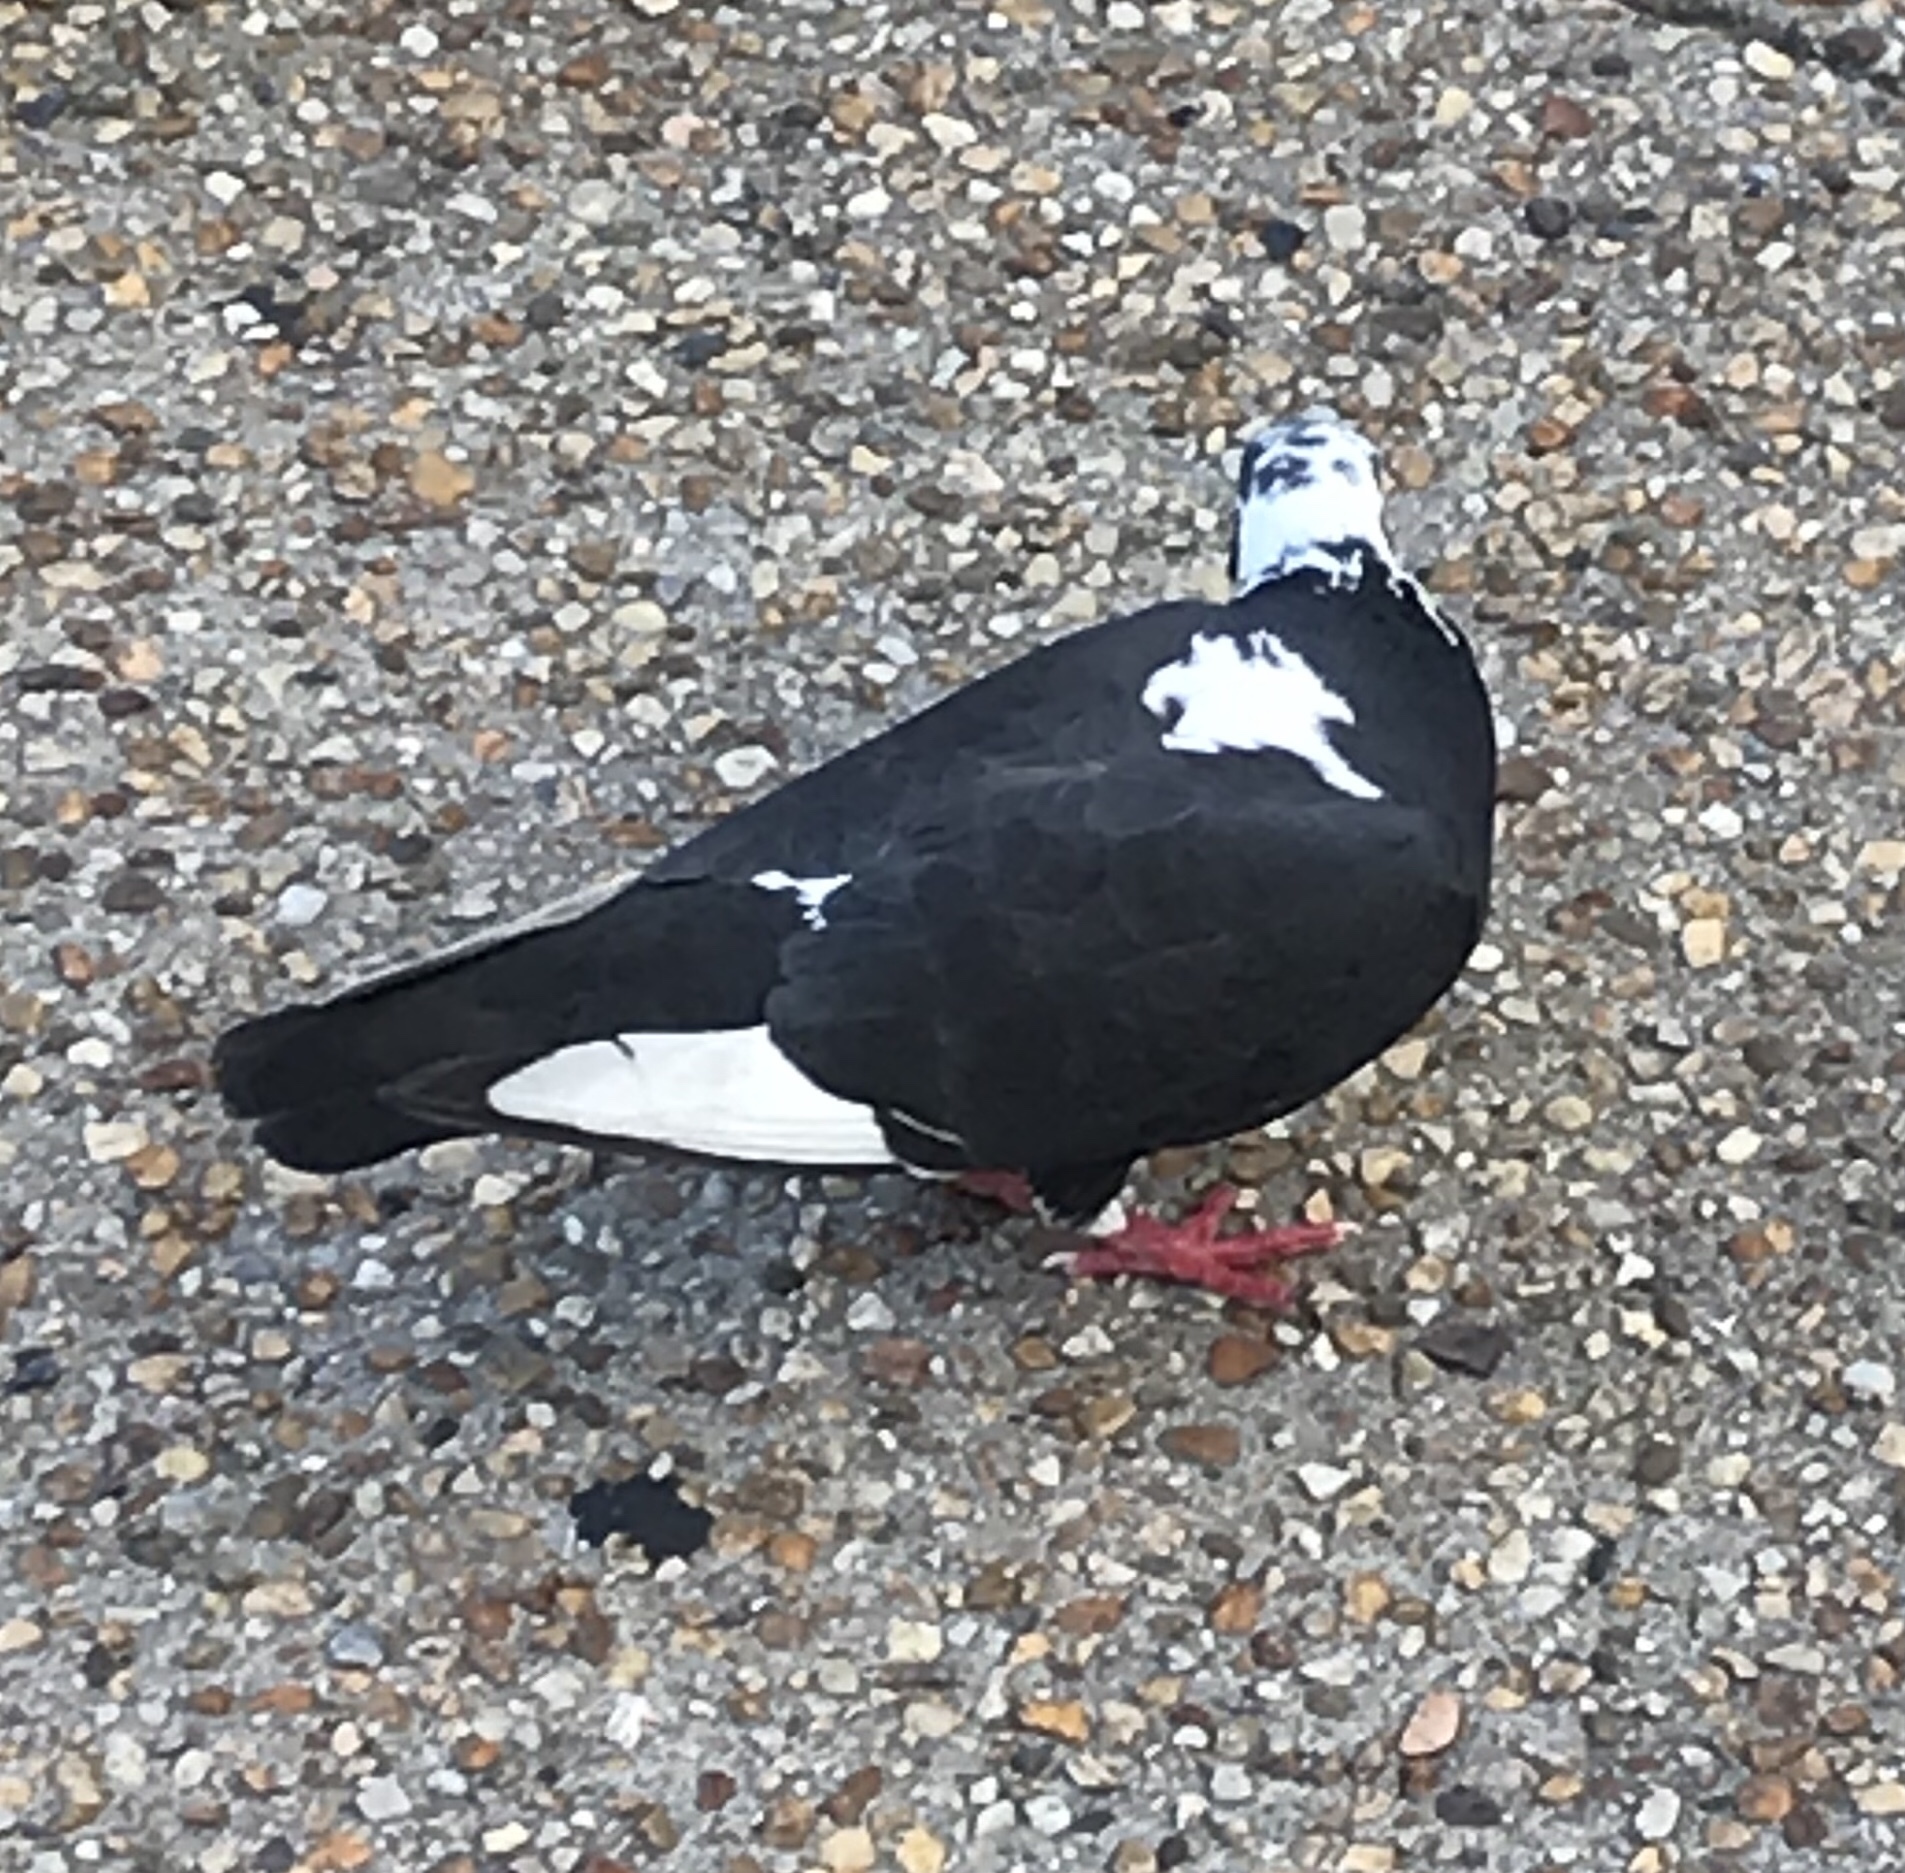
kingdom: Animalia
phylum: Chordata
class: Aves
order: Columbiformes
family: Columbidae
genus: Columba
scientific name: Columba livia
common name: Rock pigeon
